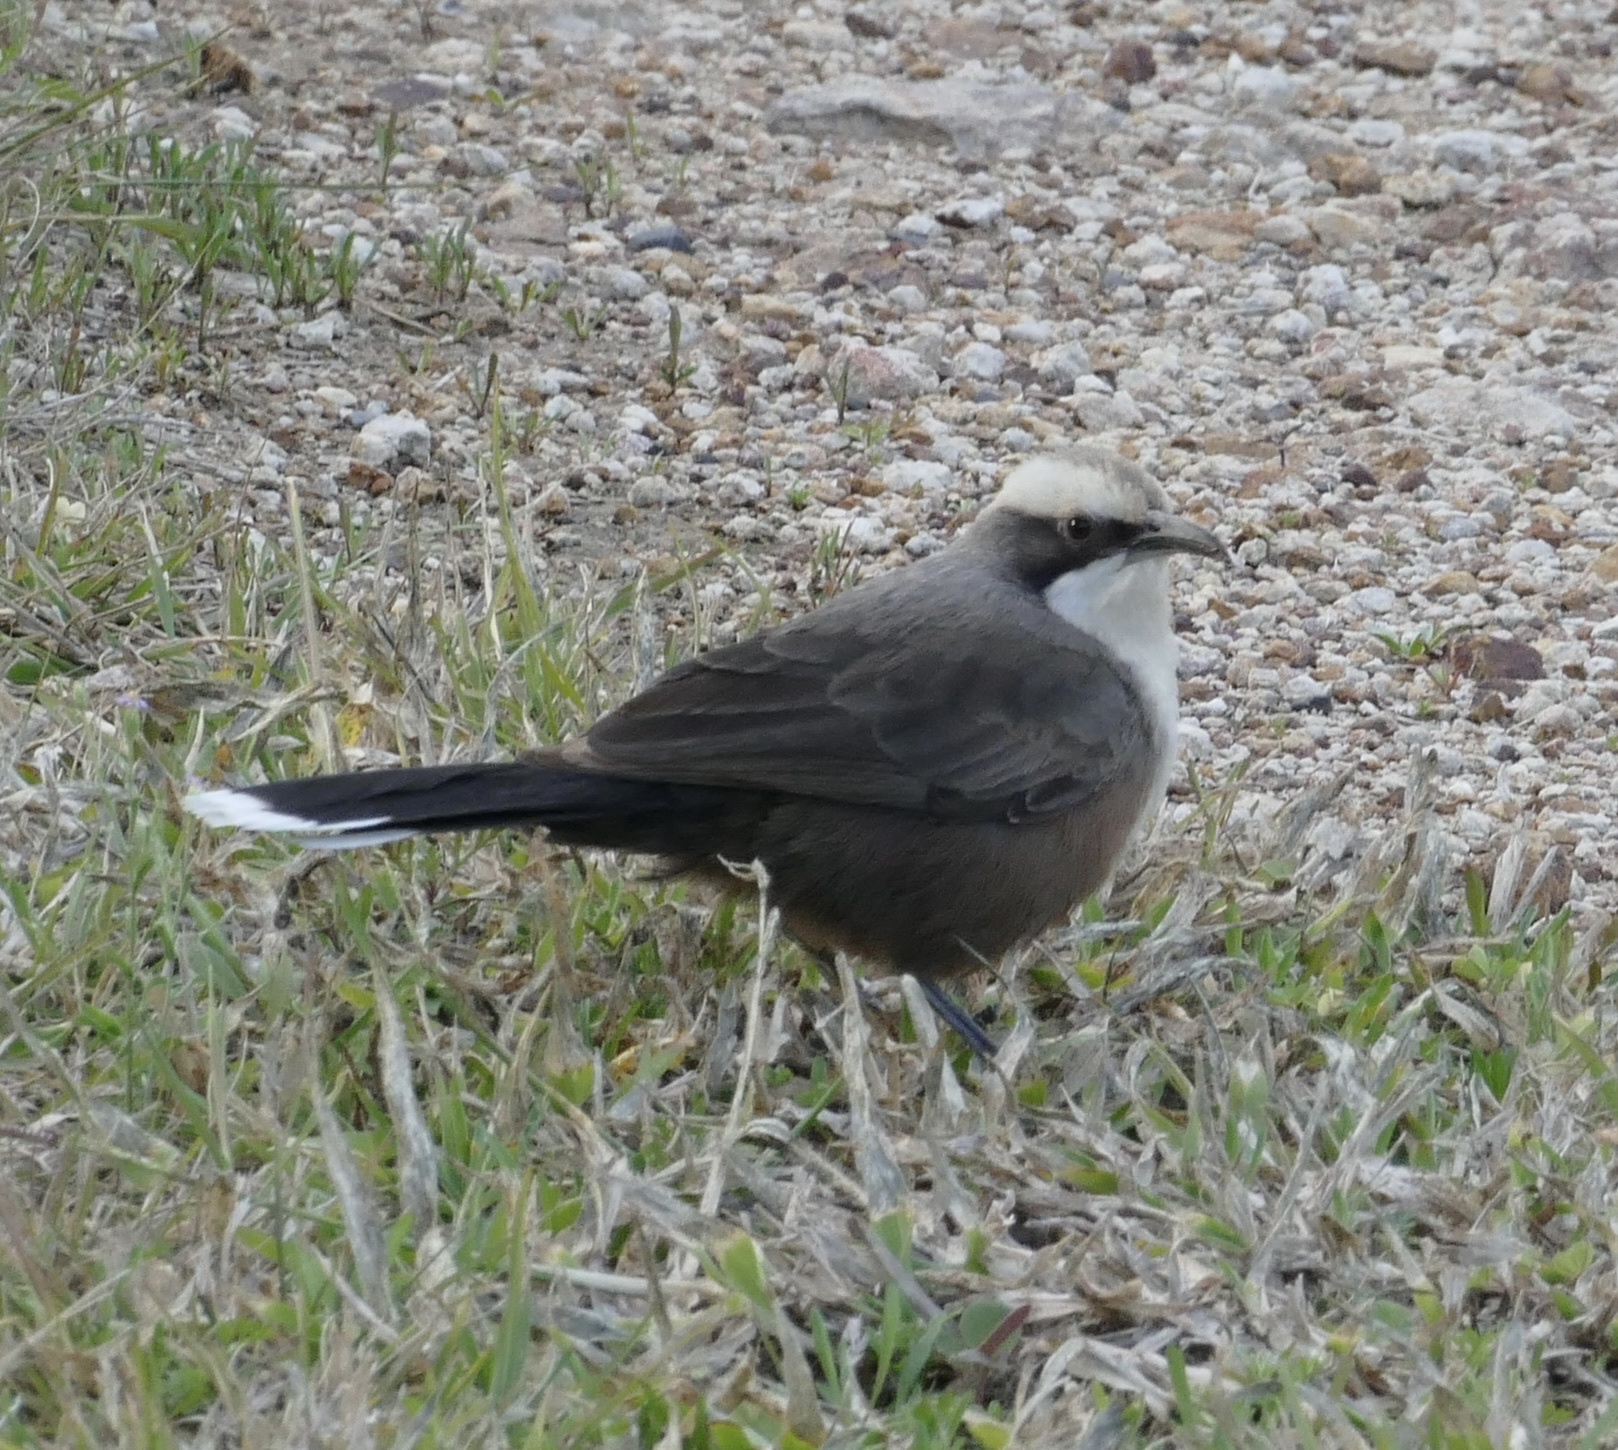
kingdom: Animalia
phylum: Chordata
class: Aves
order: Passeriformes
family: Pomatostomidae
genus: Pomatostomus
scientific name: Pomatostomus temporalis
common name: Grey-crowned babbler
